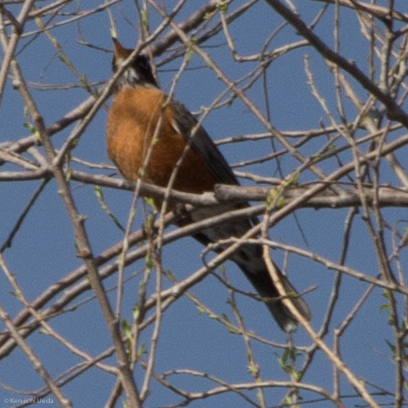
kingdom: Animalia
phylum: Chordata
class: Aves
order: Passeriformes
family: Turdidae
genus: Turdus
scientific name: Turdus migratorius
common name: American robin
